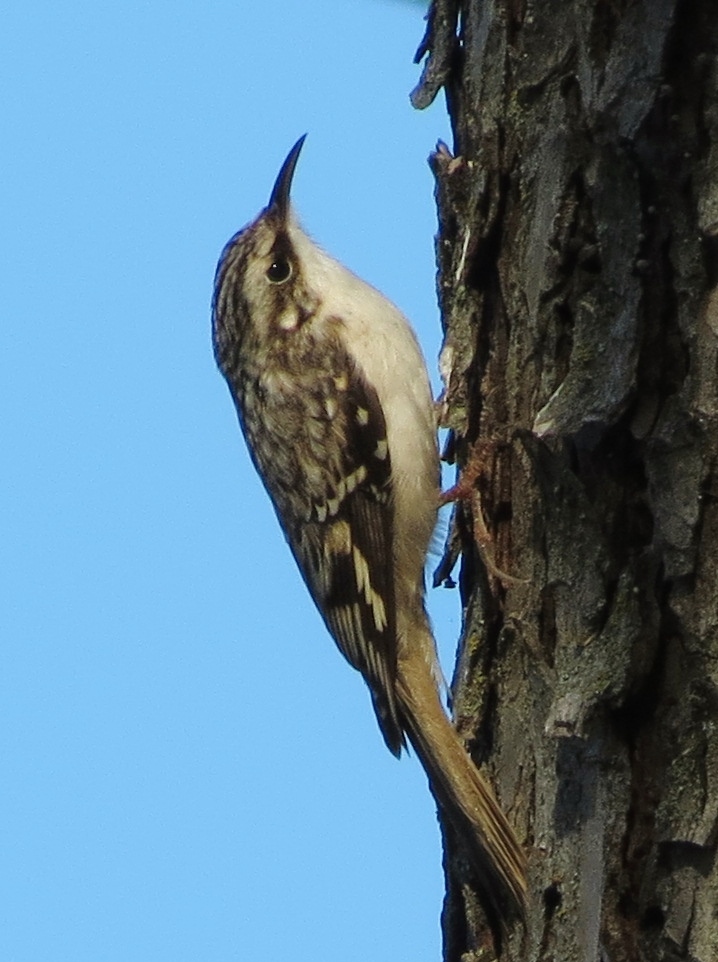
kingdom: Animalia
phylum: Chordata
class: Aves
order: Passeriformes
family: Certhiidae
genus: Certhia
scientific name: Certhia americana
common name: Brown creeper
